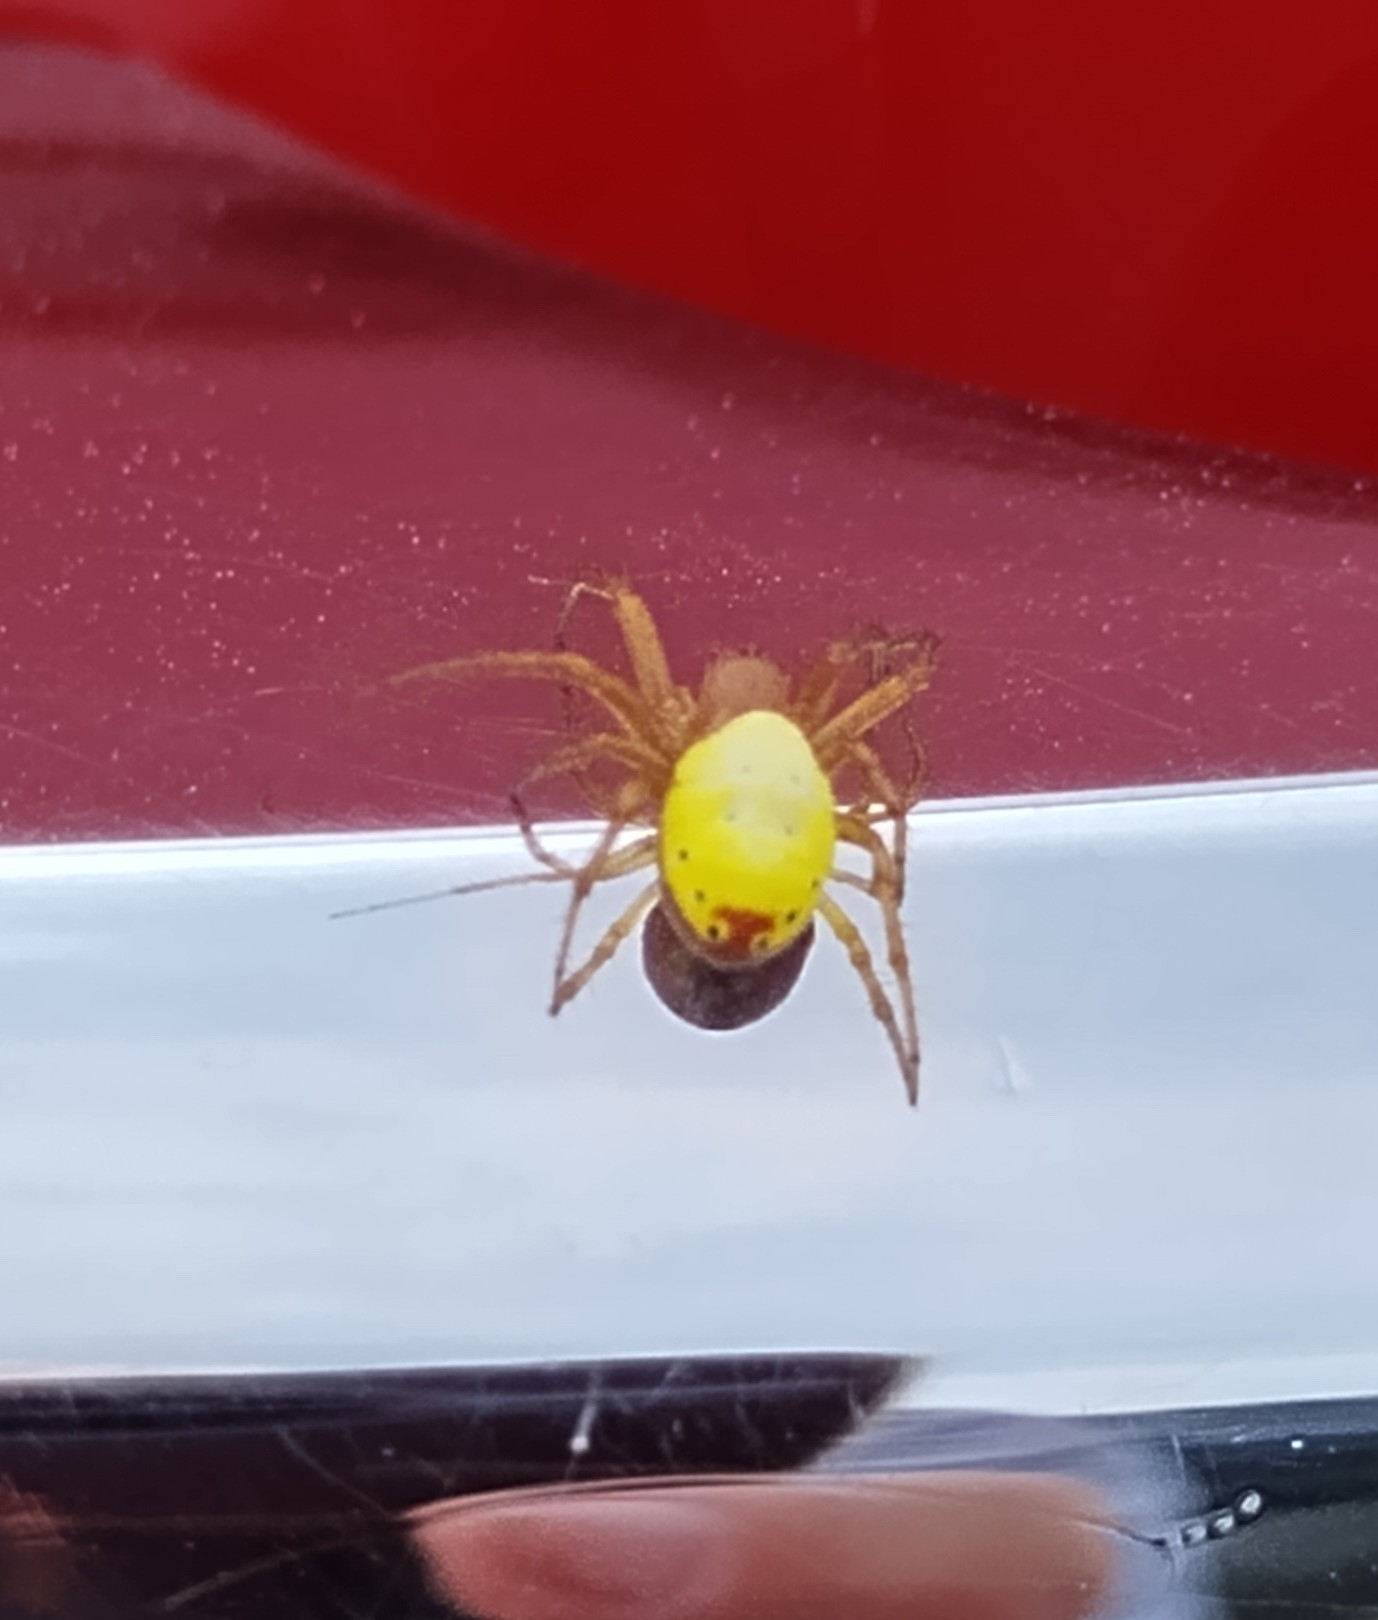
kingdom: Animalia
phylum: Arthropoda
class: Arachnida
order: Araneae
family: Araneidae
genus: Araniella
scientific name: Araniella displicata
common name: Sixspotted orb weaver
